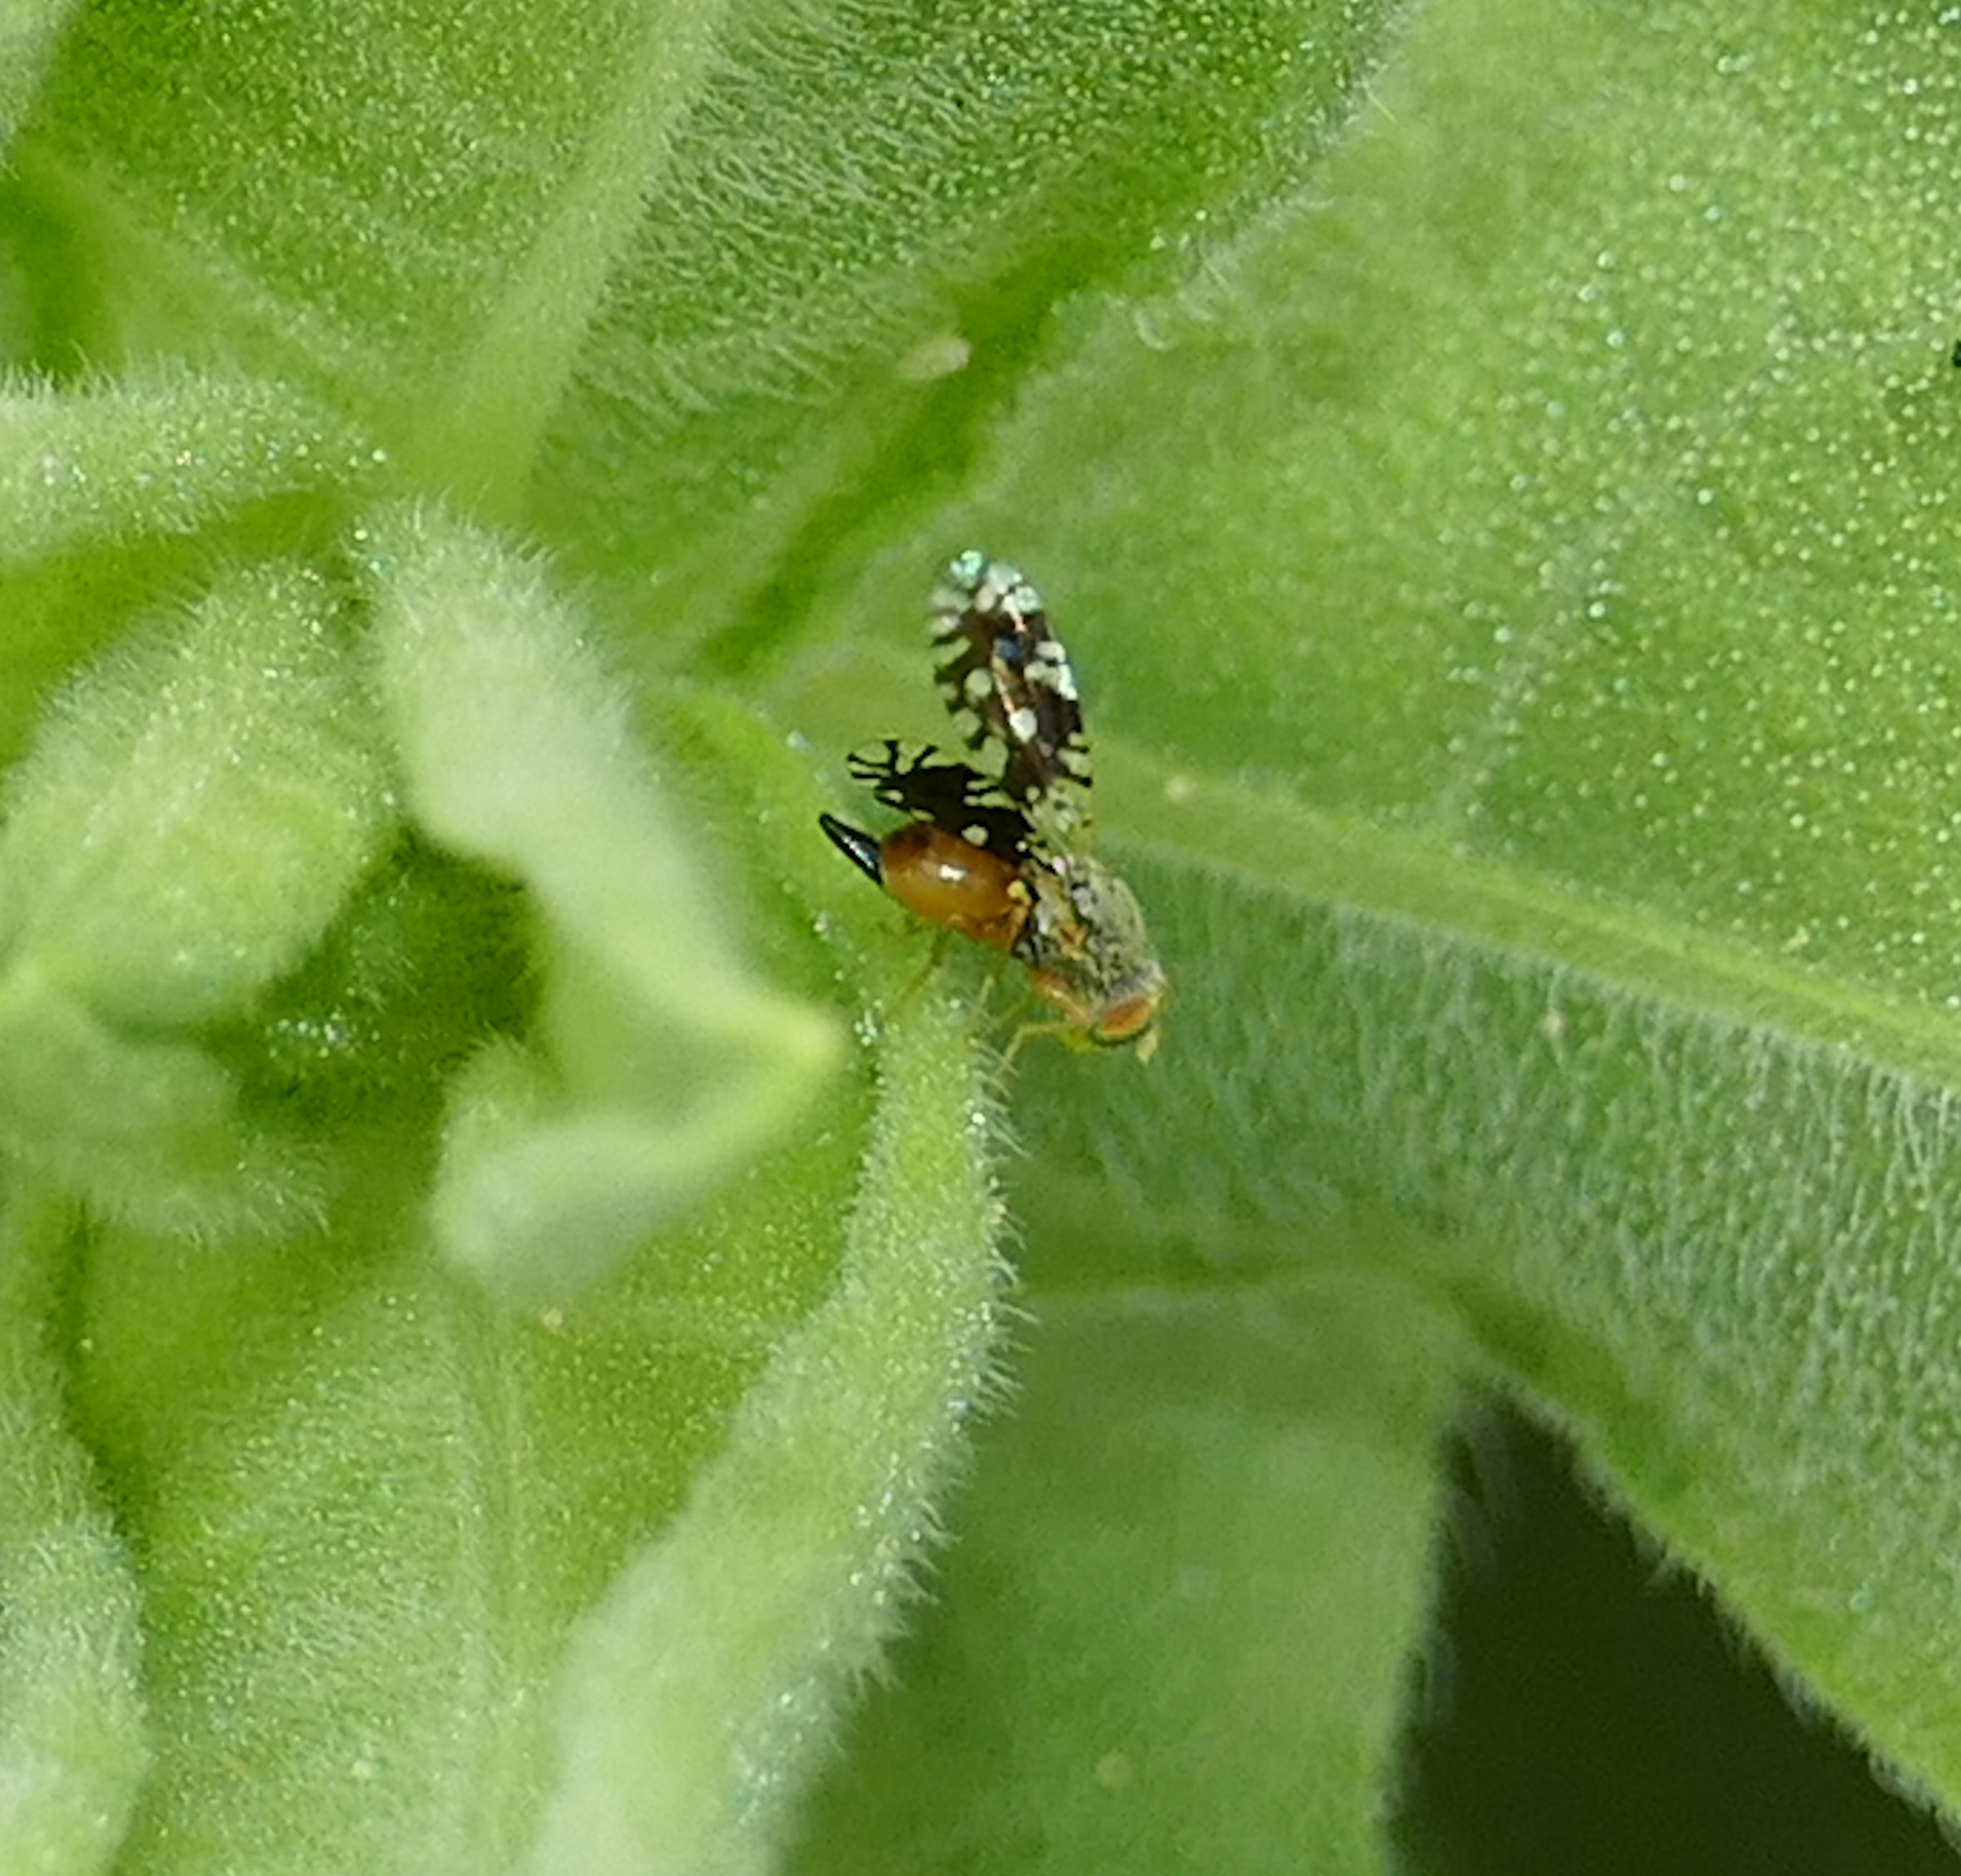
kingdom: Animalia
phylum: Arthropoda
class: Insecta
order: Diptera
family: Tephritidae
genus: Euaresta
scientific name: Euaresta bellula
